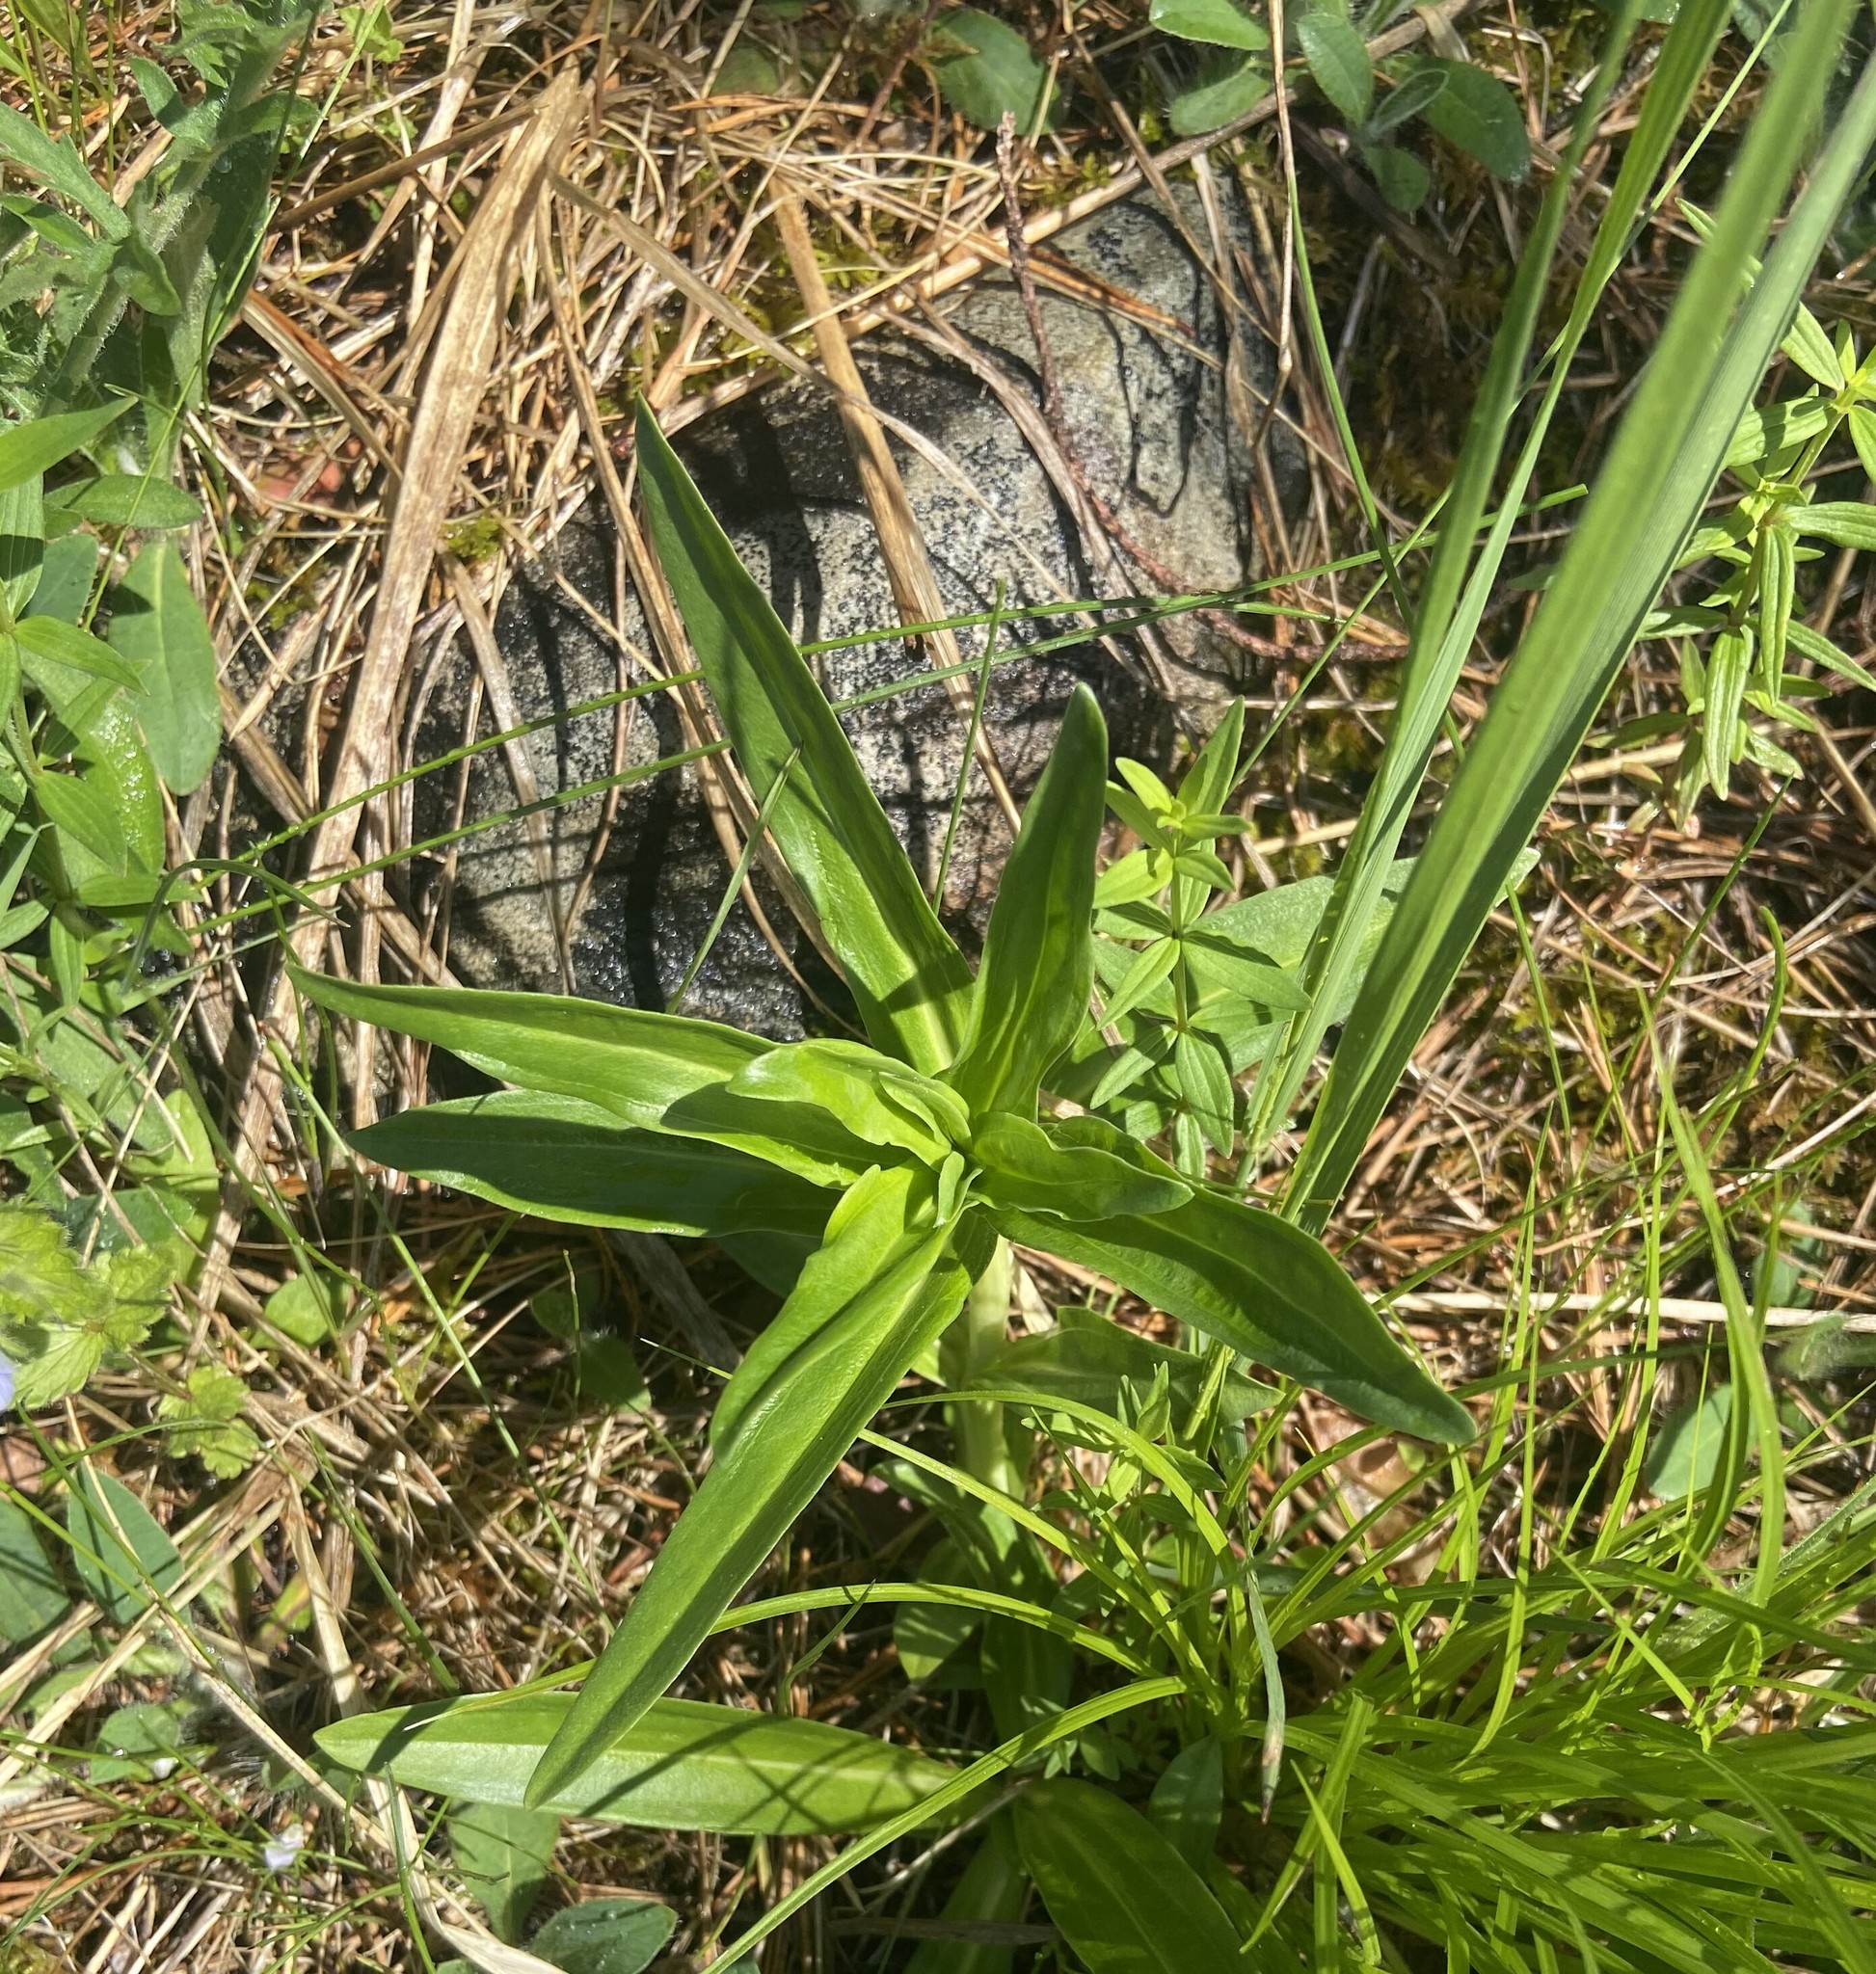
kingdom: Plantae
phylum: Tracheophyta
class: Magnoliopsida
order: Gentianales
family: Gentianaceae
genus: Gentiana
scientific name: Gentiana cruciata
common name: Cross gentian
